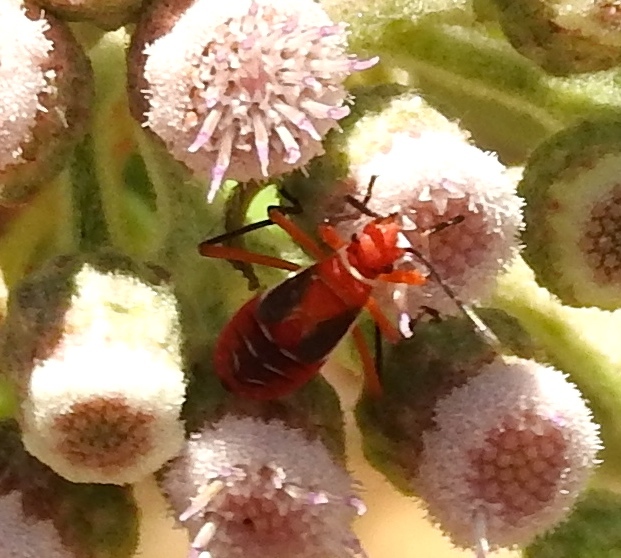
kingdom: Animalia
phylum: Arthropoda
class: Insecta
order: Hemiptera
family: Pyrrhocoridae
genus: Dysdercus
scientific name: Dysdercus
